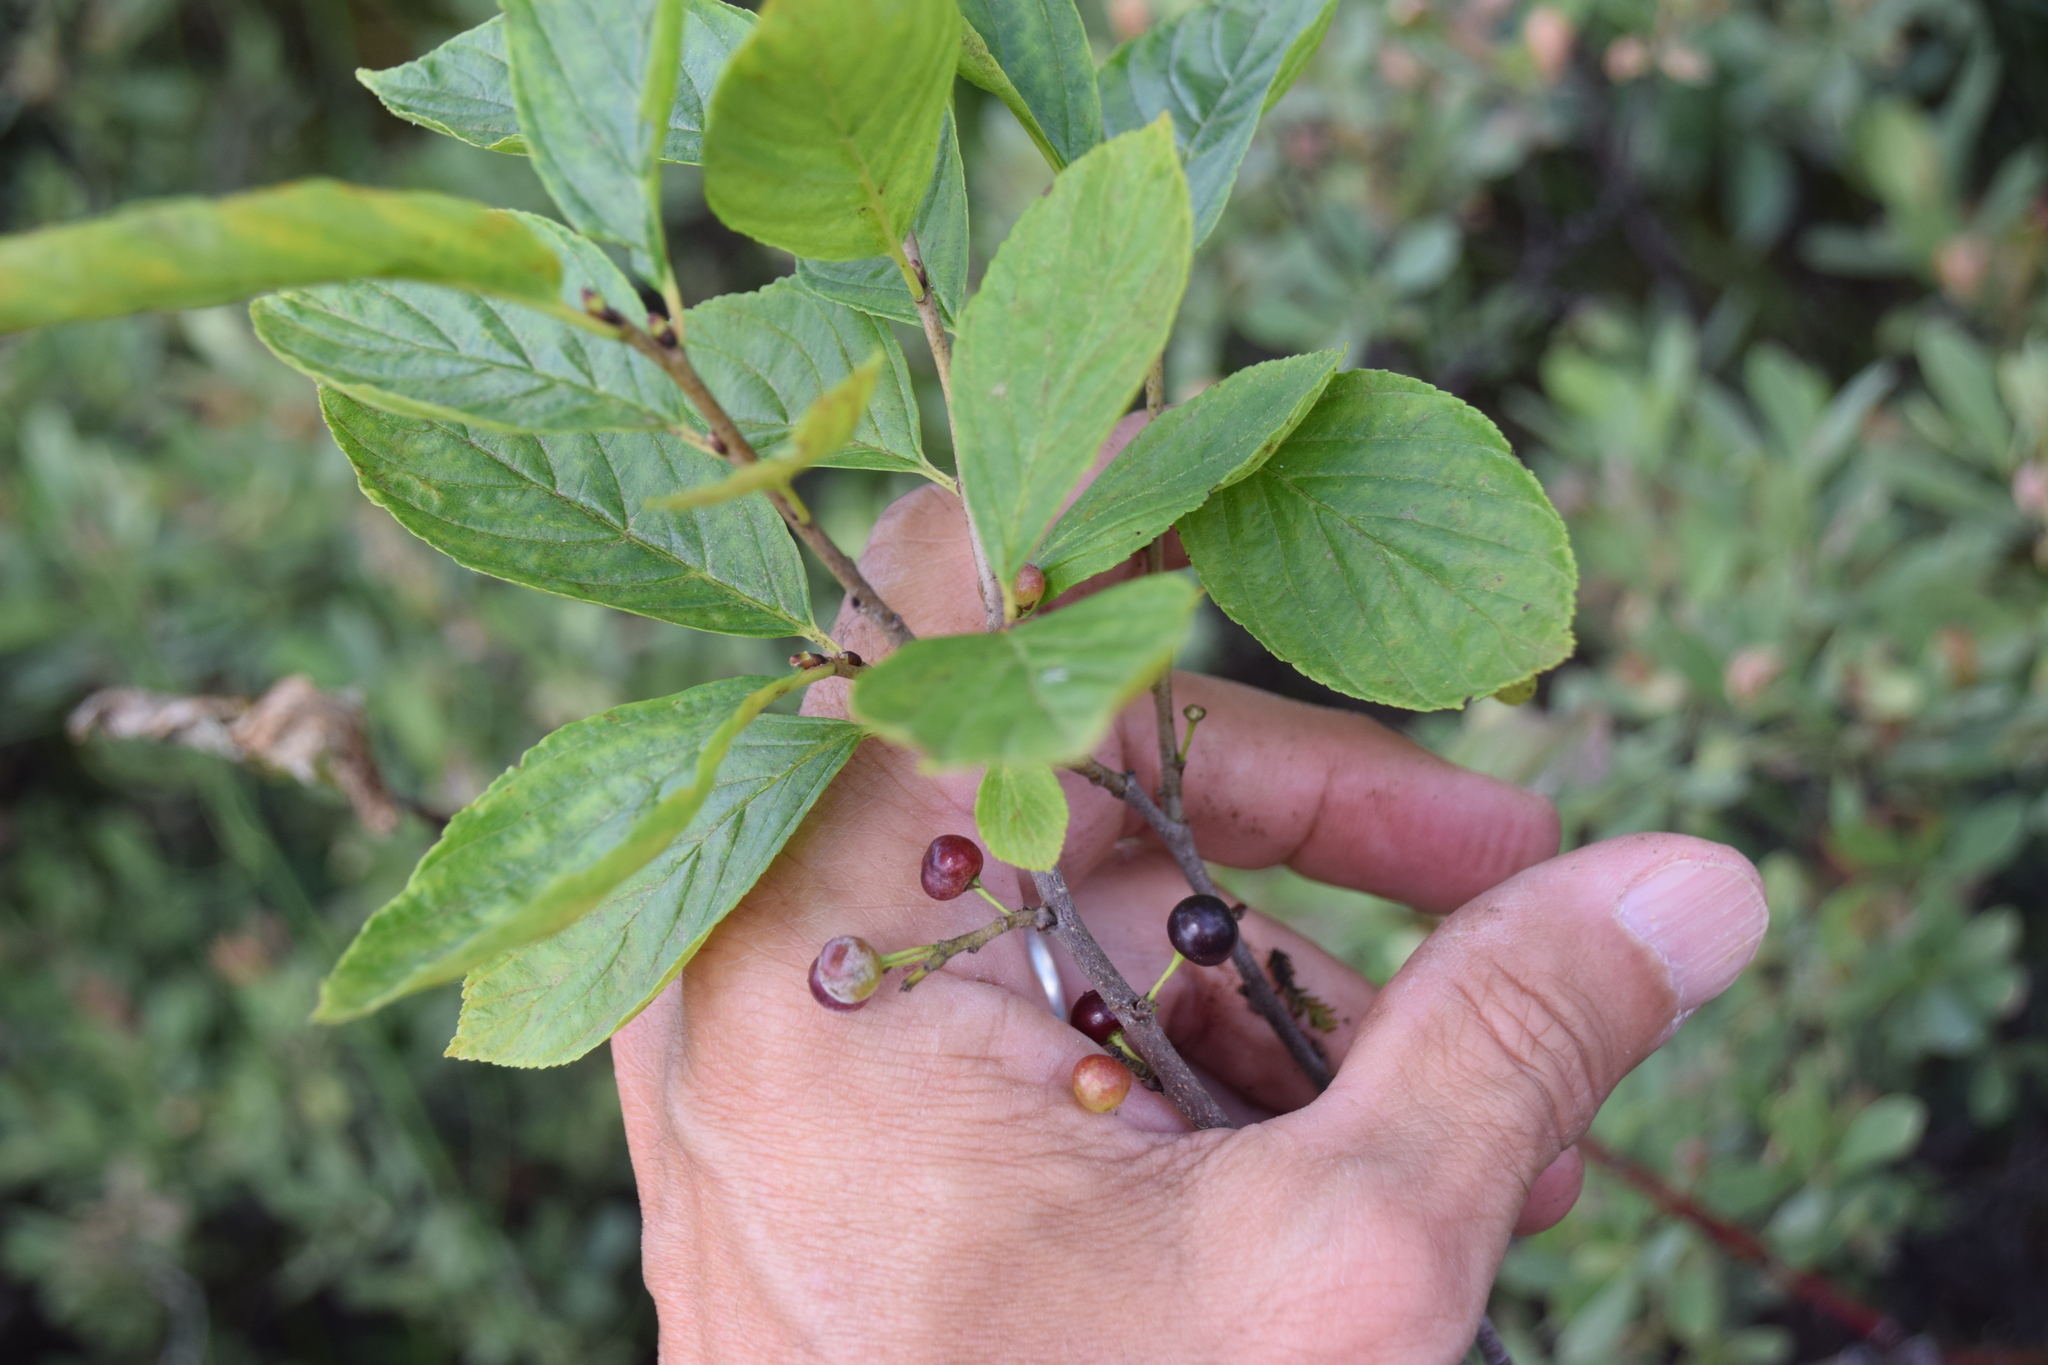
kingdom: Plantae
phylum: Tracheophyta
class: Magnoliopsida
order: Rosales
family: Rhamnaceae
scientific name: Rhamnaceae
